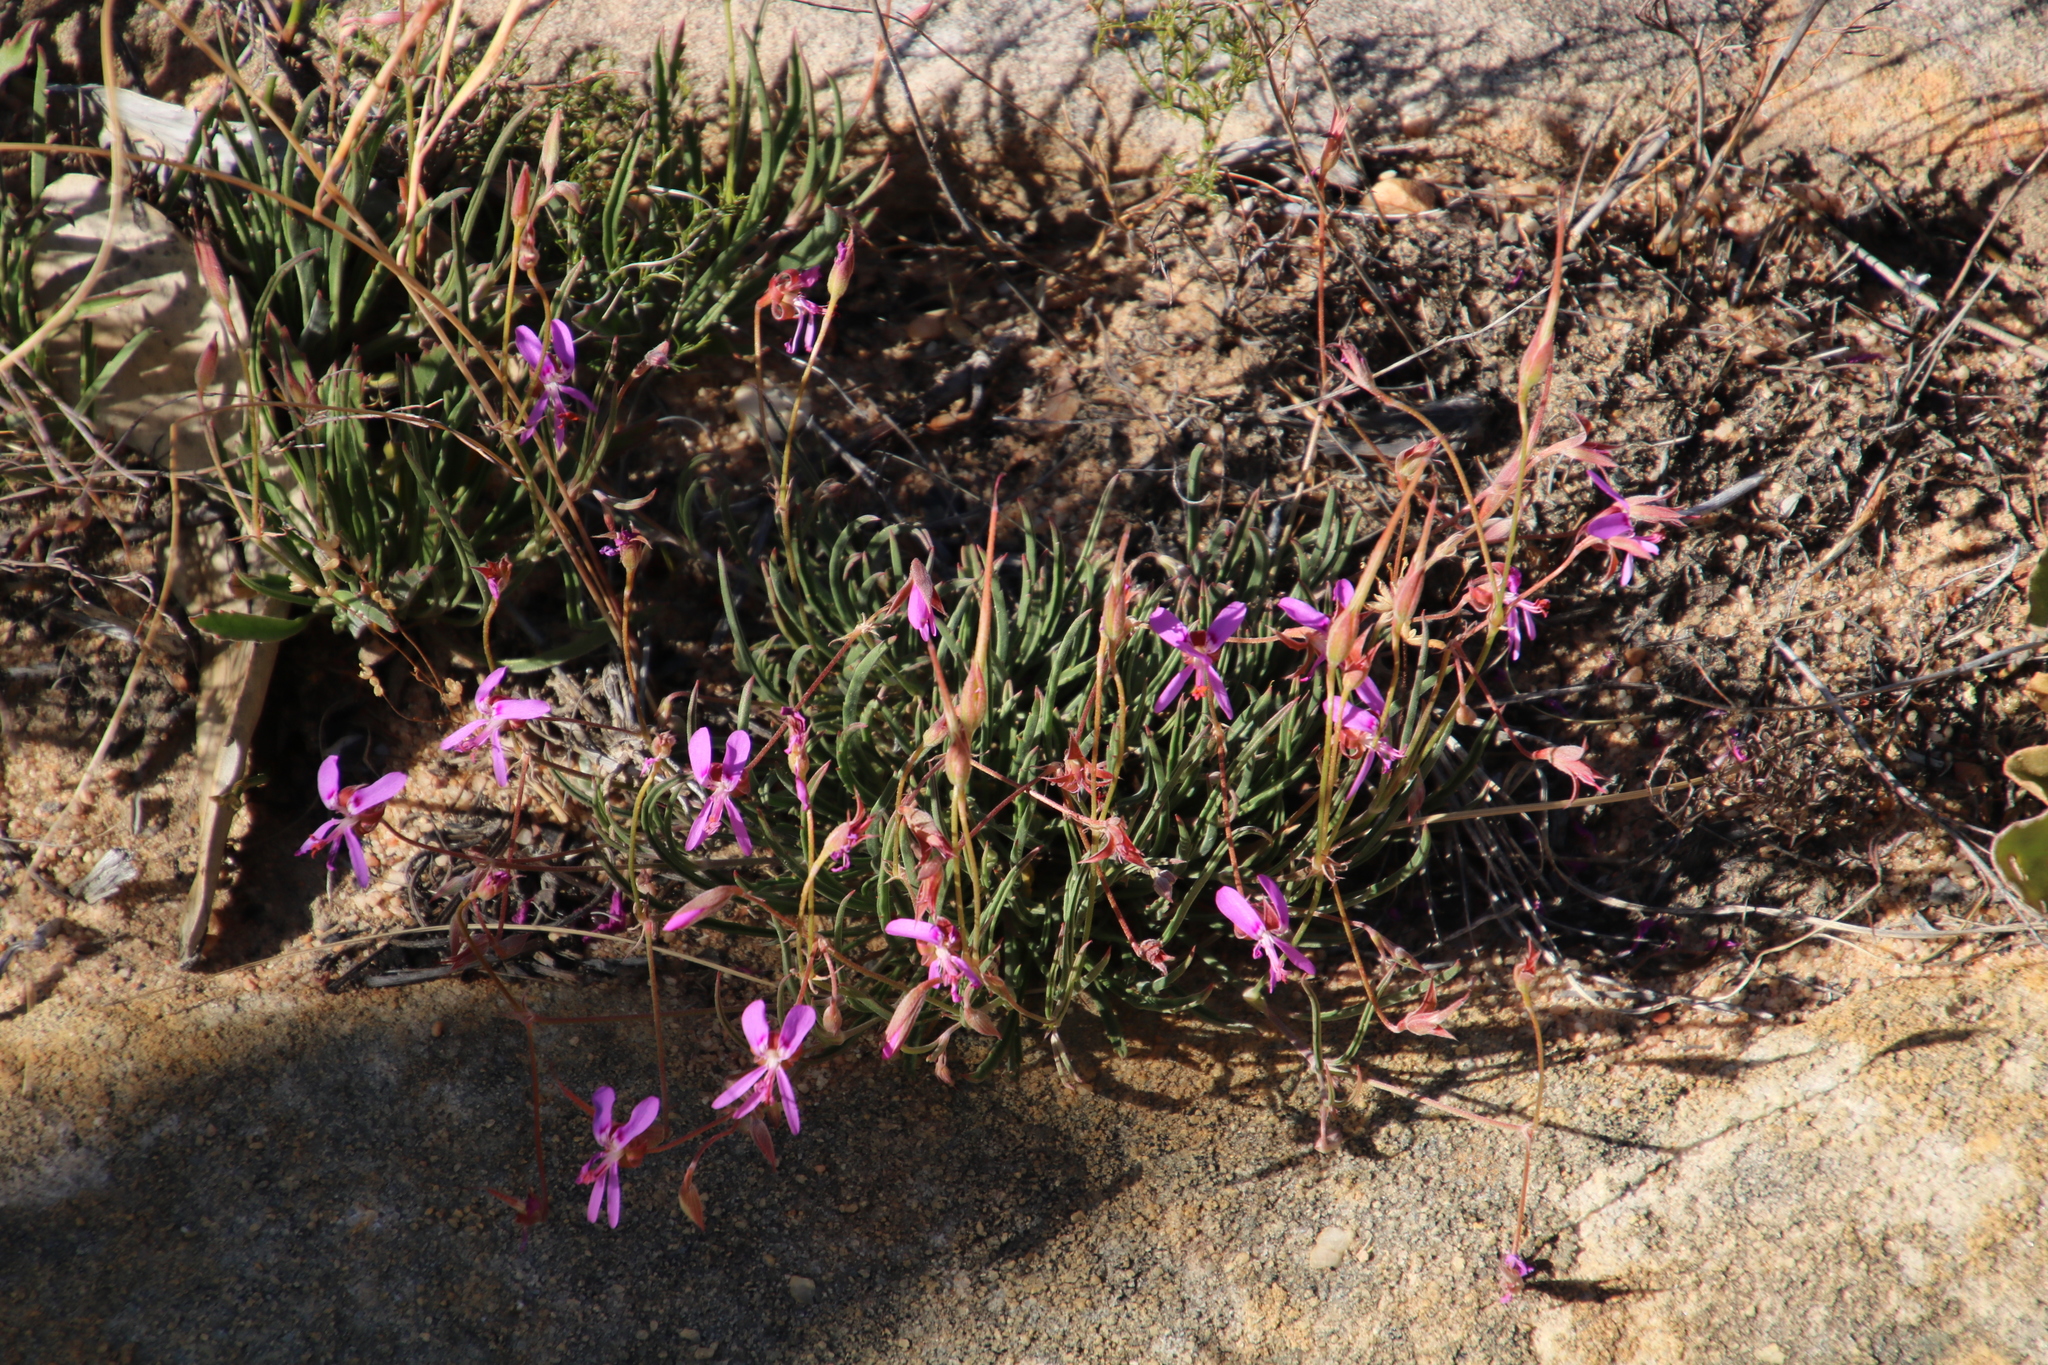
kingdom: Plantae
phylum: Tracheophyta
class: Magnoliopsida
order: Geraniales
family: Geraniaceae
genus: Pelargonium
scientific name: Pelargonium coronopifolium
